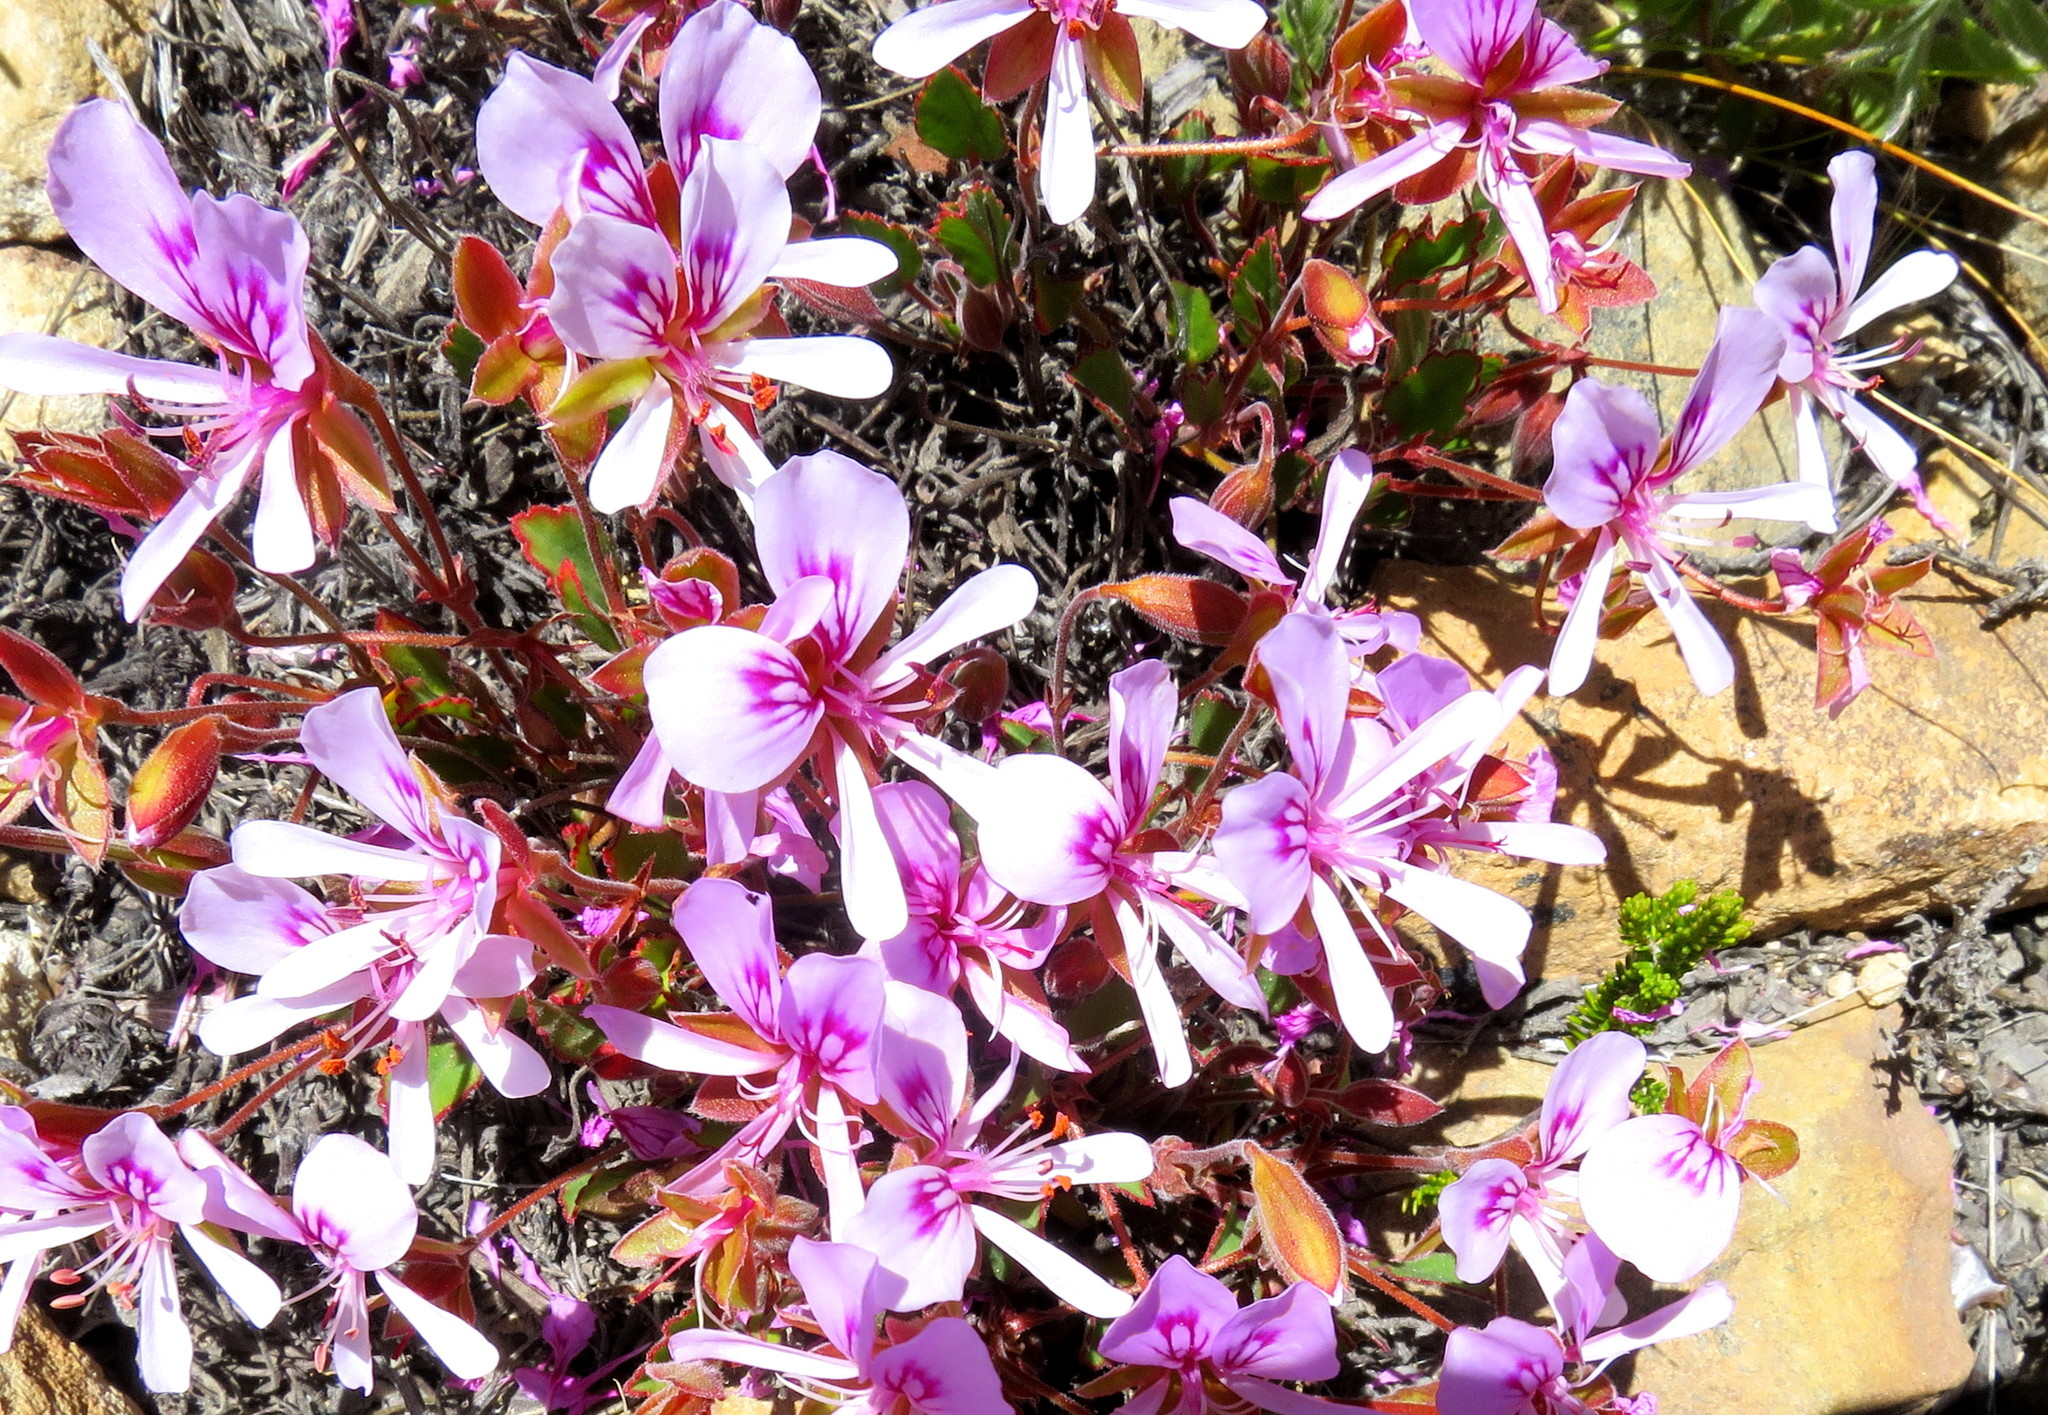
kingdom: Plantae
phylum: Tracheophyta
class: Magnoliopsida
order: Geraniales
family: Geraniaceae
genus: Pelargonium
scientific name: Pelargonium ovale
